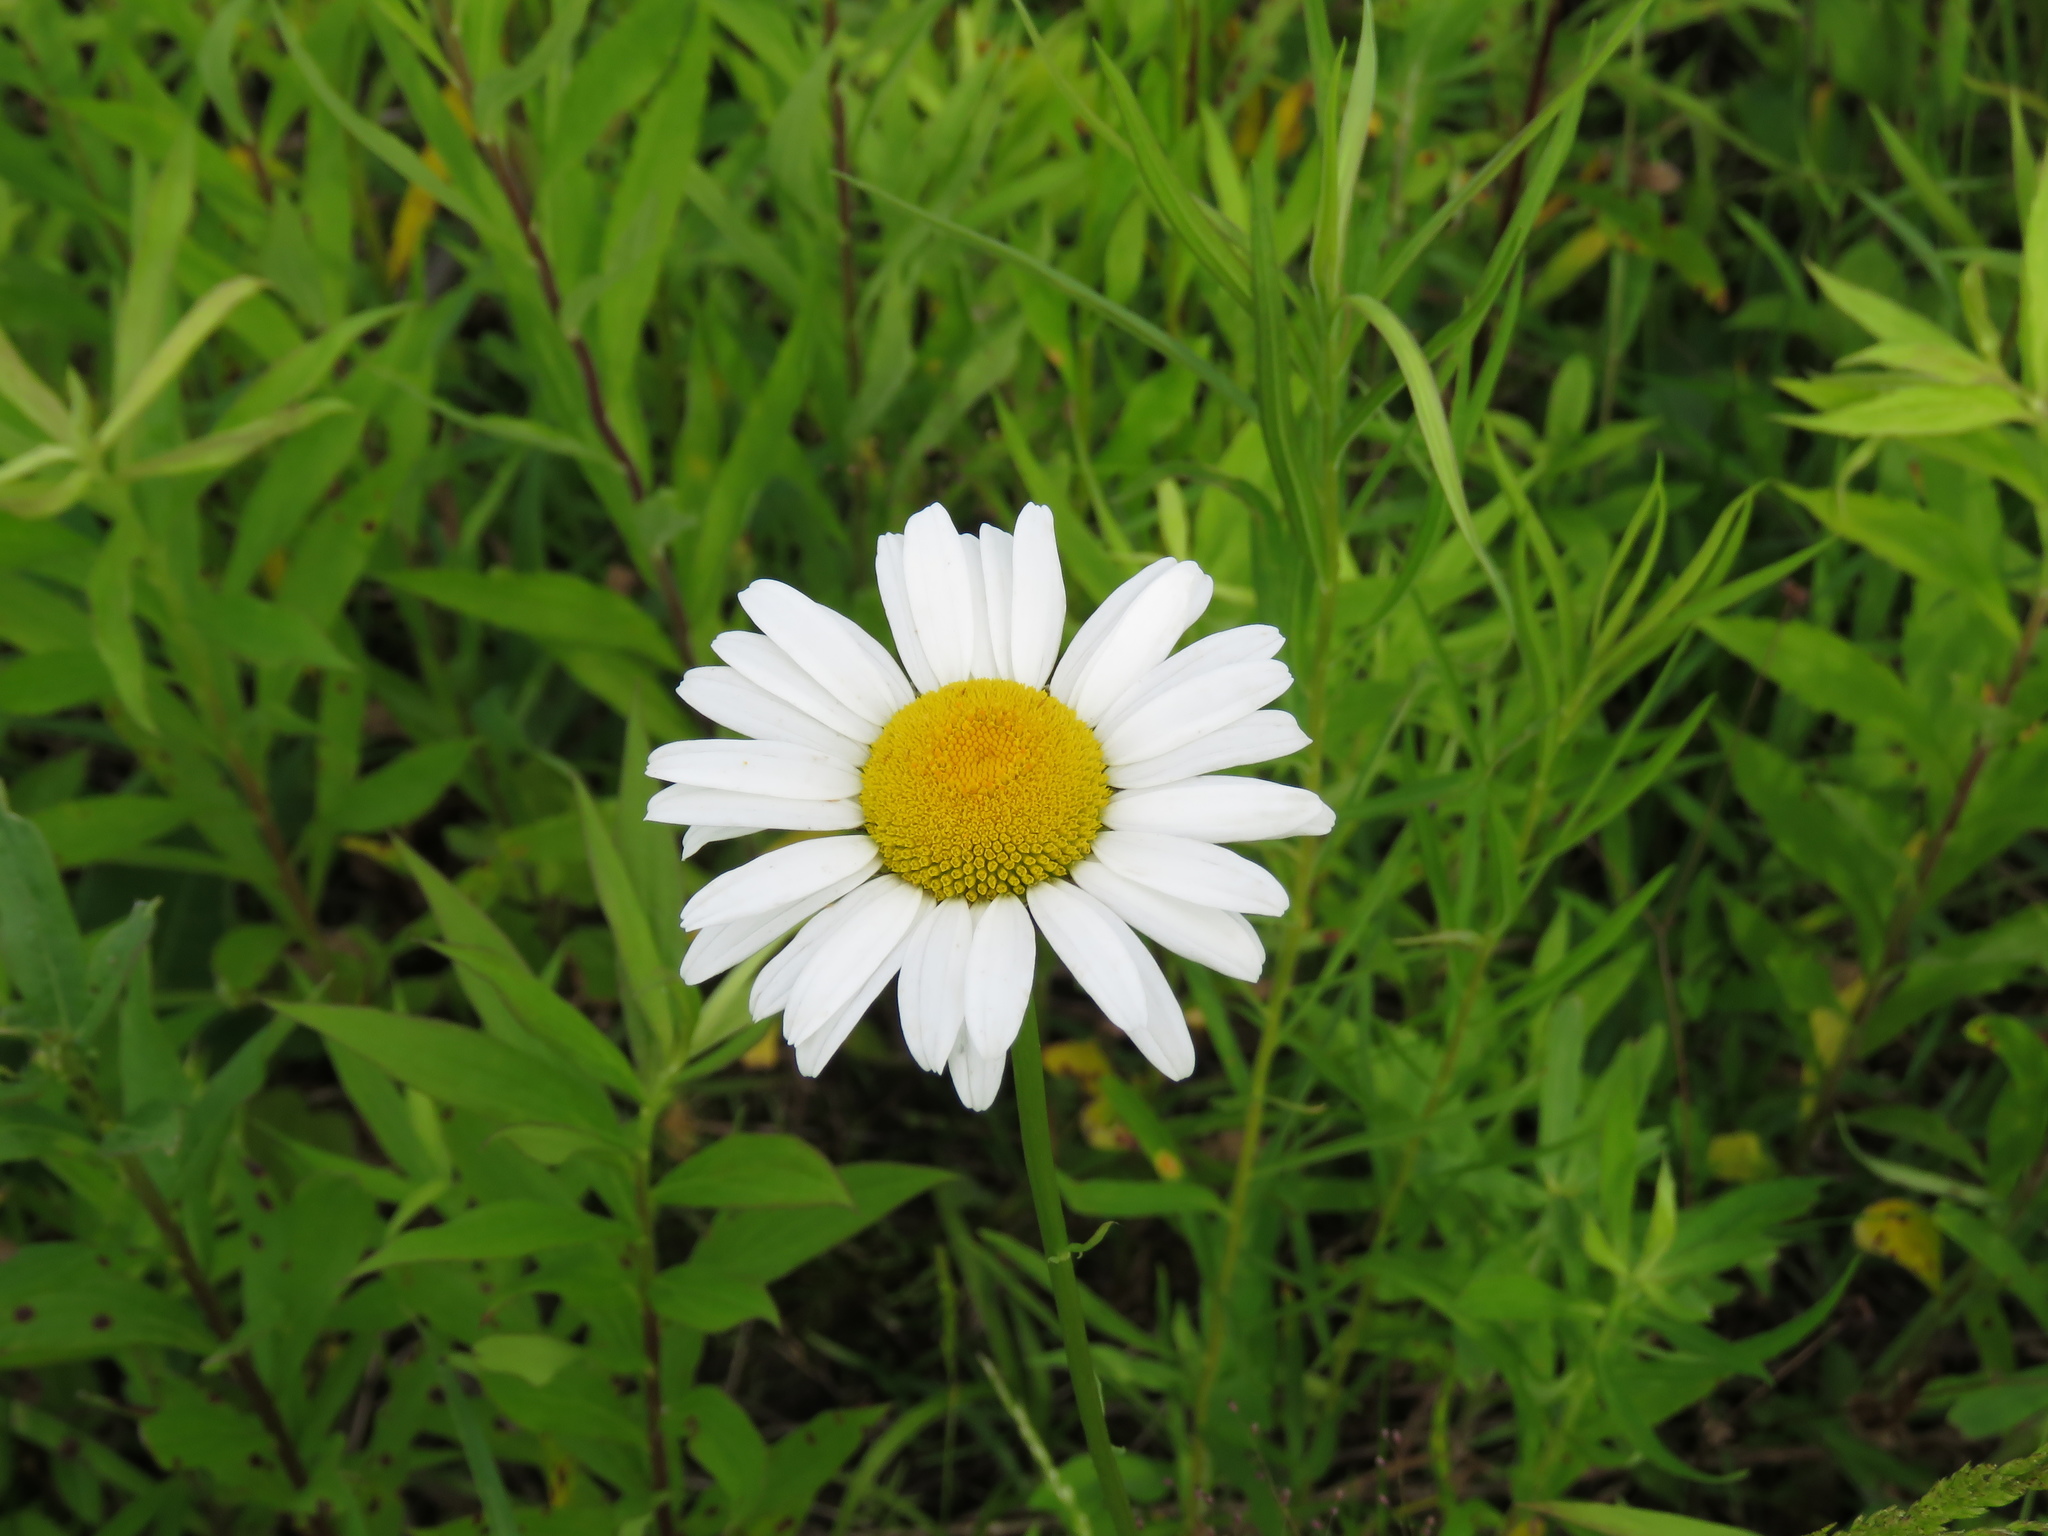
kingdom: Plantae
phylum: Tracheophyta
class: Magnoliopsida
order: Asterales
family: Asteraceae
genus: Leucanthemum
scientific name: Leucanthemum vulgare
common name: Oxeye daisy
